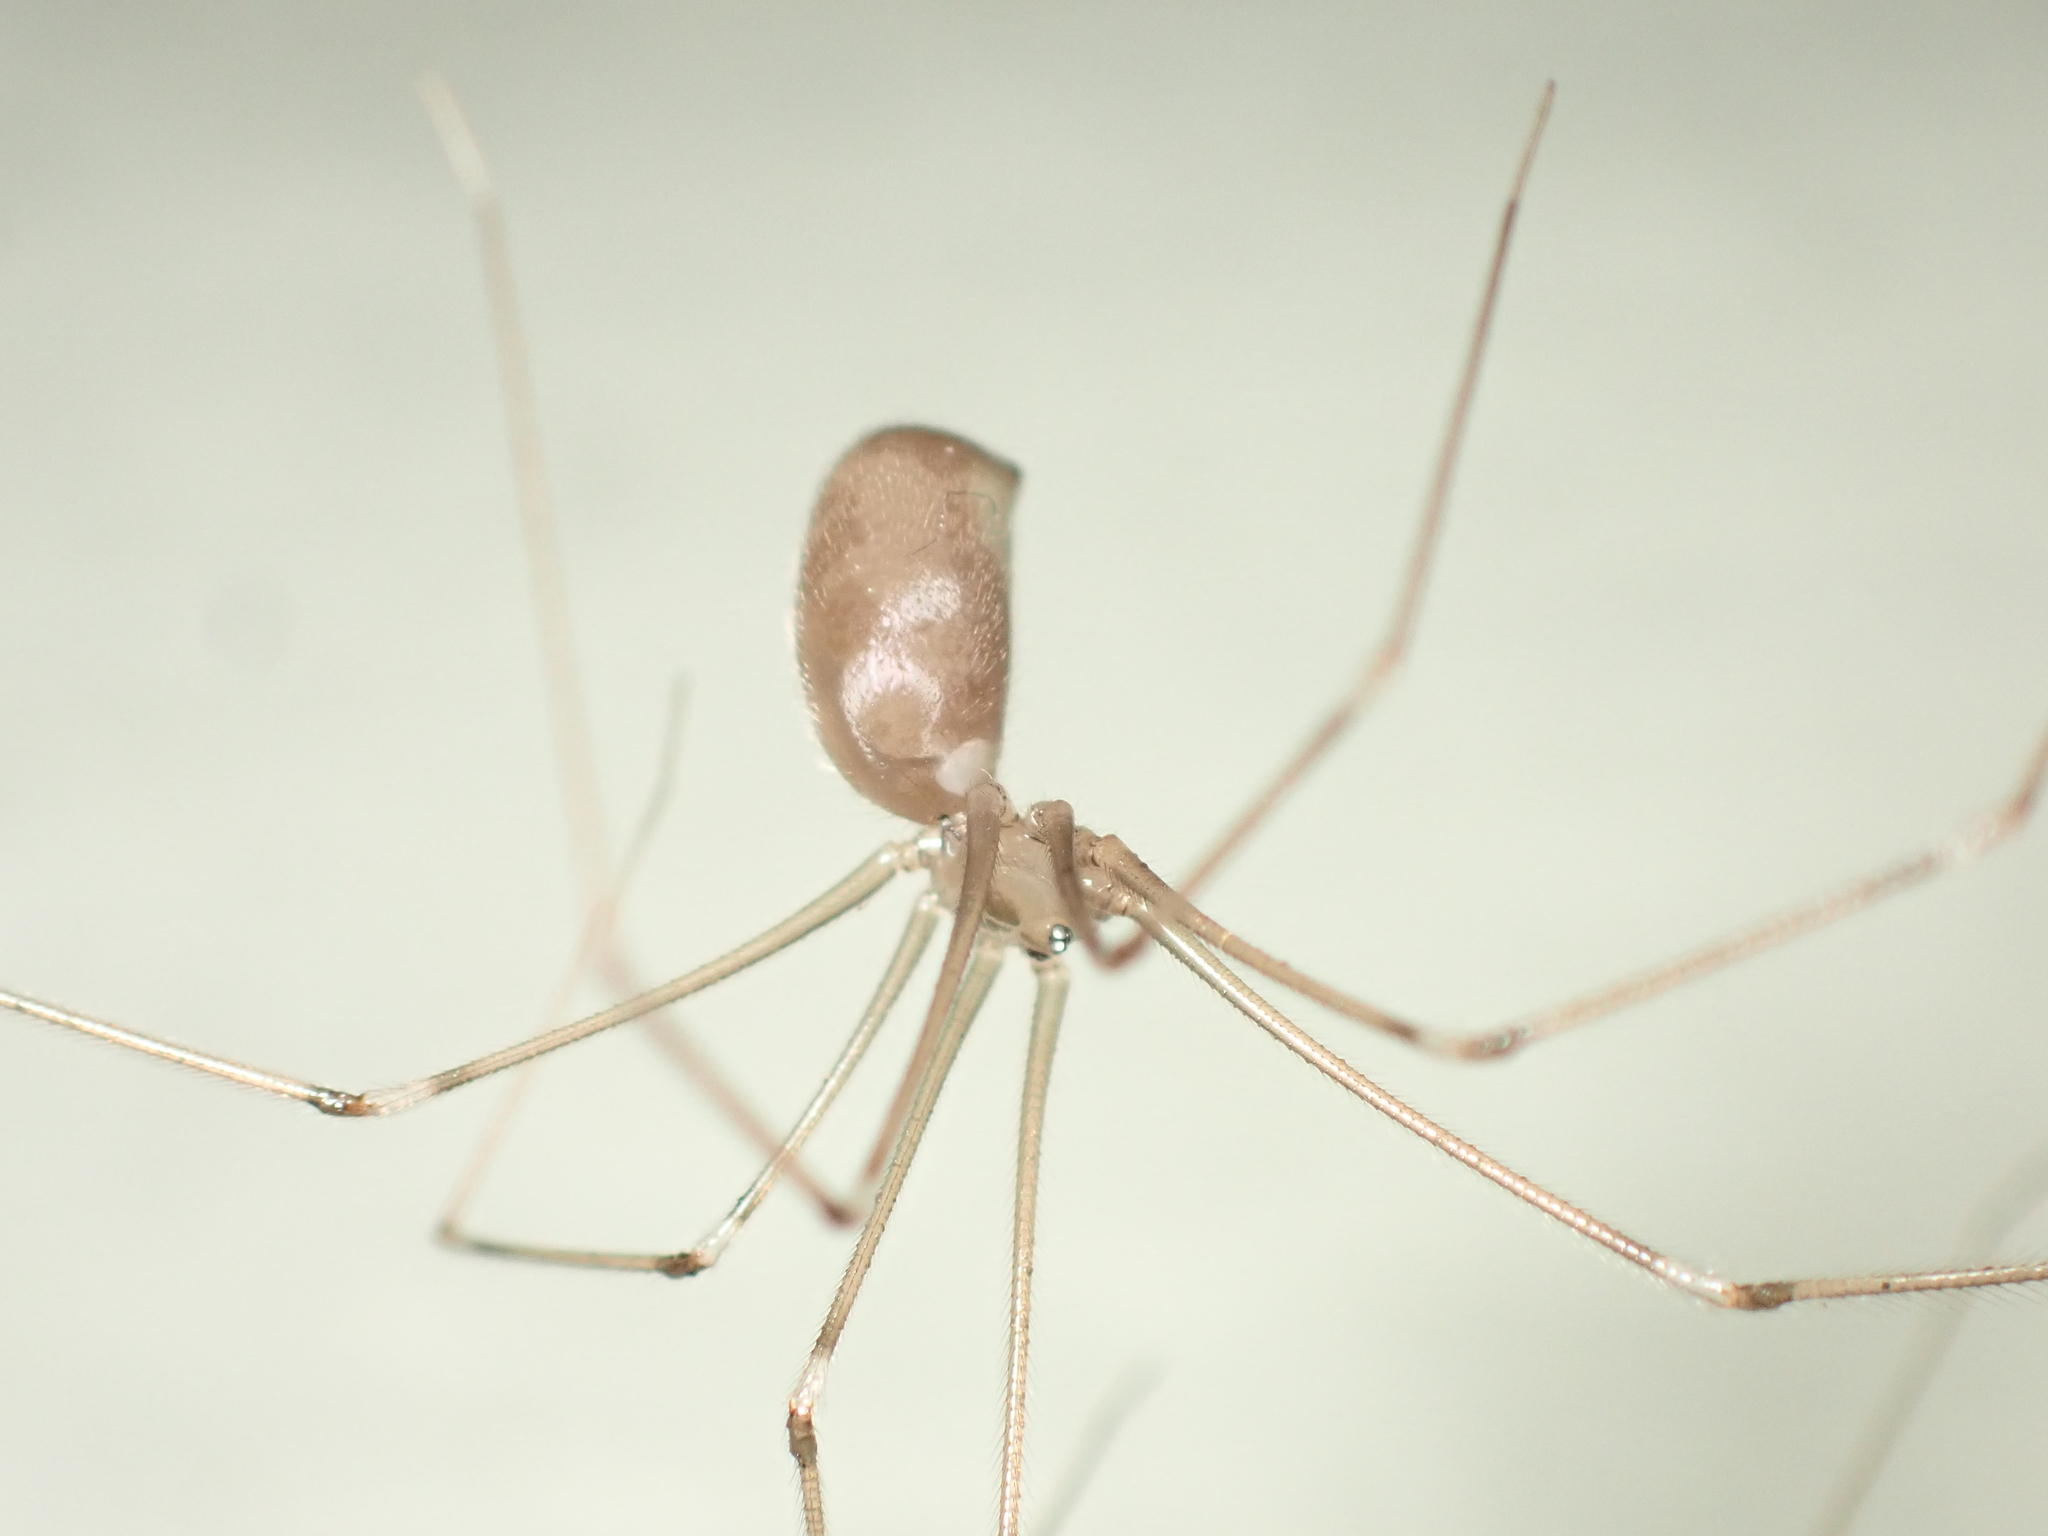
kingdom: Animalia
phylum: Arthropoda
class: Arachnida
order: Araneae
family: Pholcidae
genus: Pholcus
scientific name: Pholcus phalangioides
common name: Longbodied cellar spider
